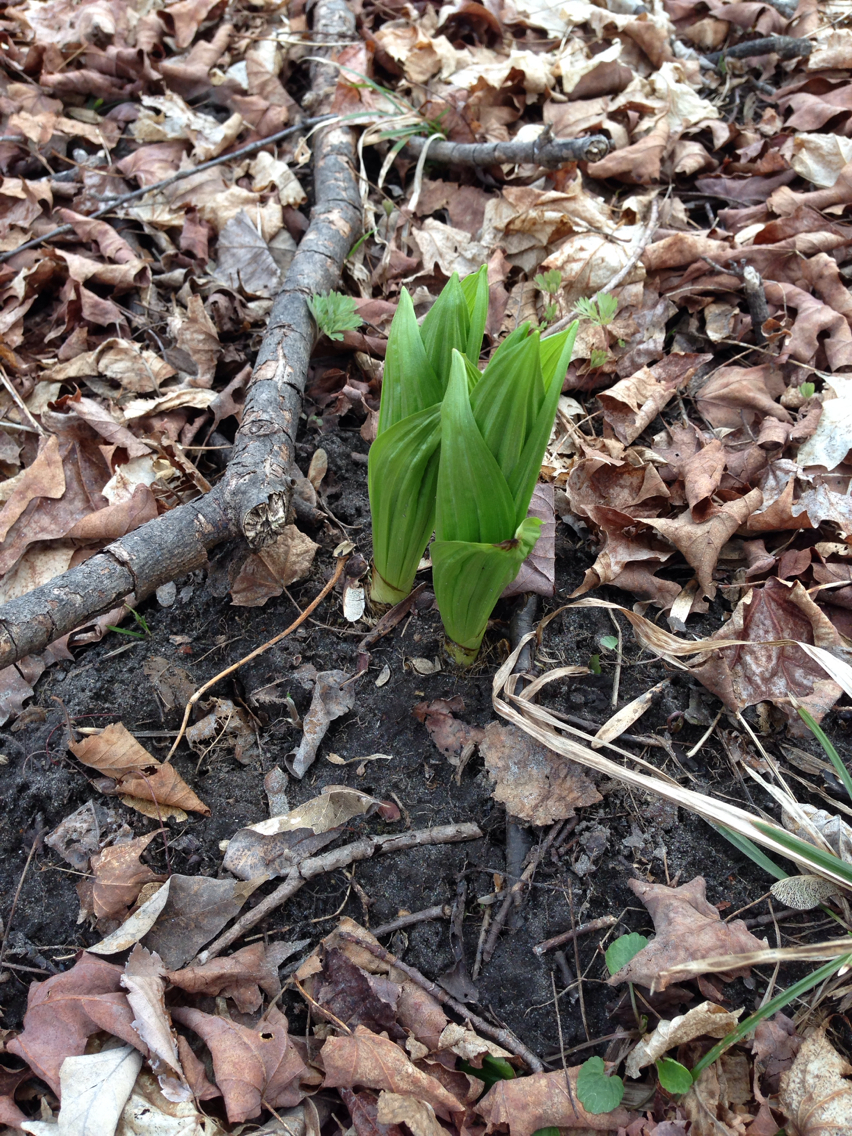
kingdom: Plantae
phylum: Tracheophyta
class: Liliopsida
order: Liliales
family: Melanthiaceae
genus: Veratrum
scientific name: Veratrum viride
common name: American false hellebore
